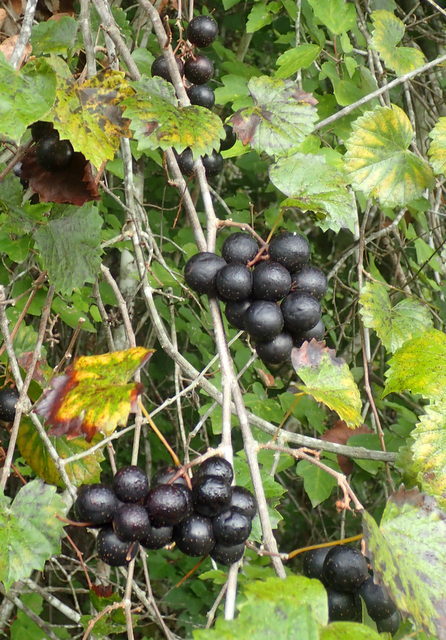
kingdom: Plantae
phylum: Tracheophyta
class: Magnoliopsida
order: Vitales
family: Vitaceae
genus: Vitis
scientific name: Vitis rotundifolia
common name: Muscadine grape
